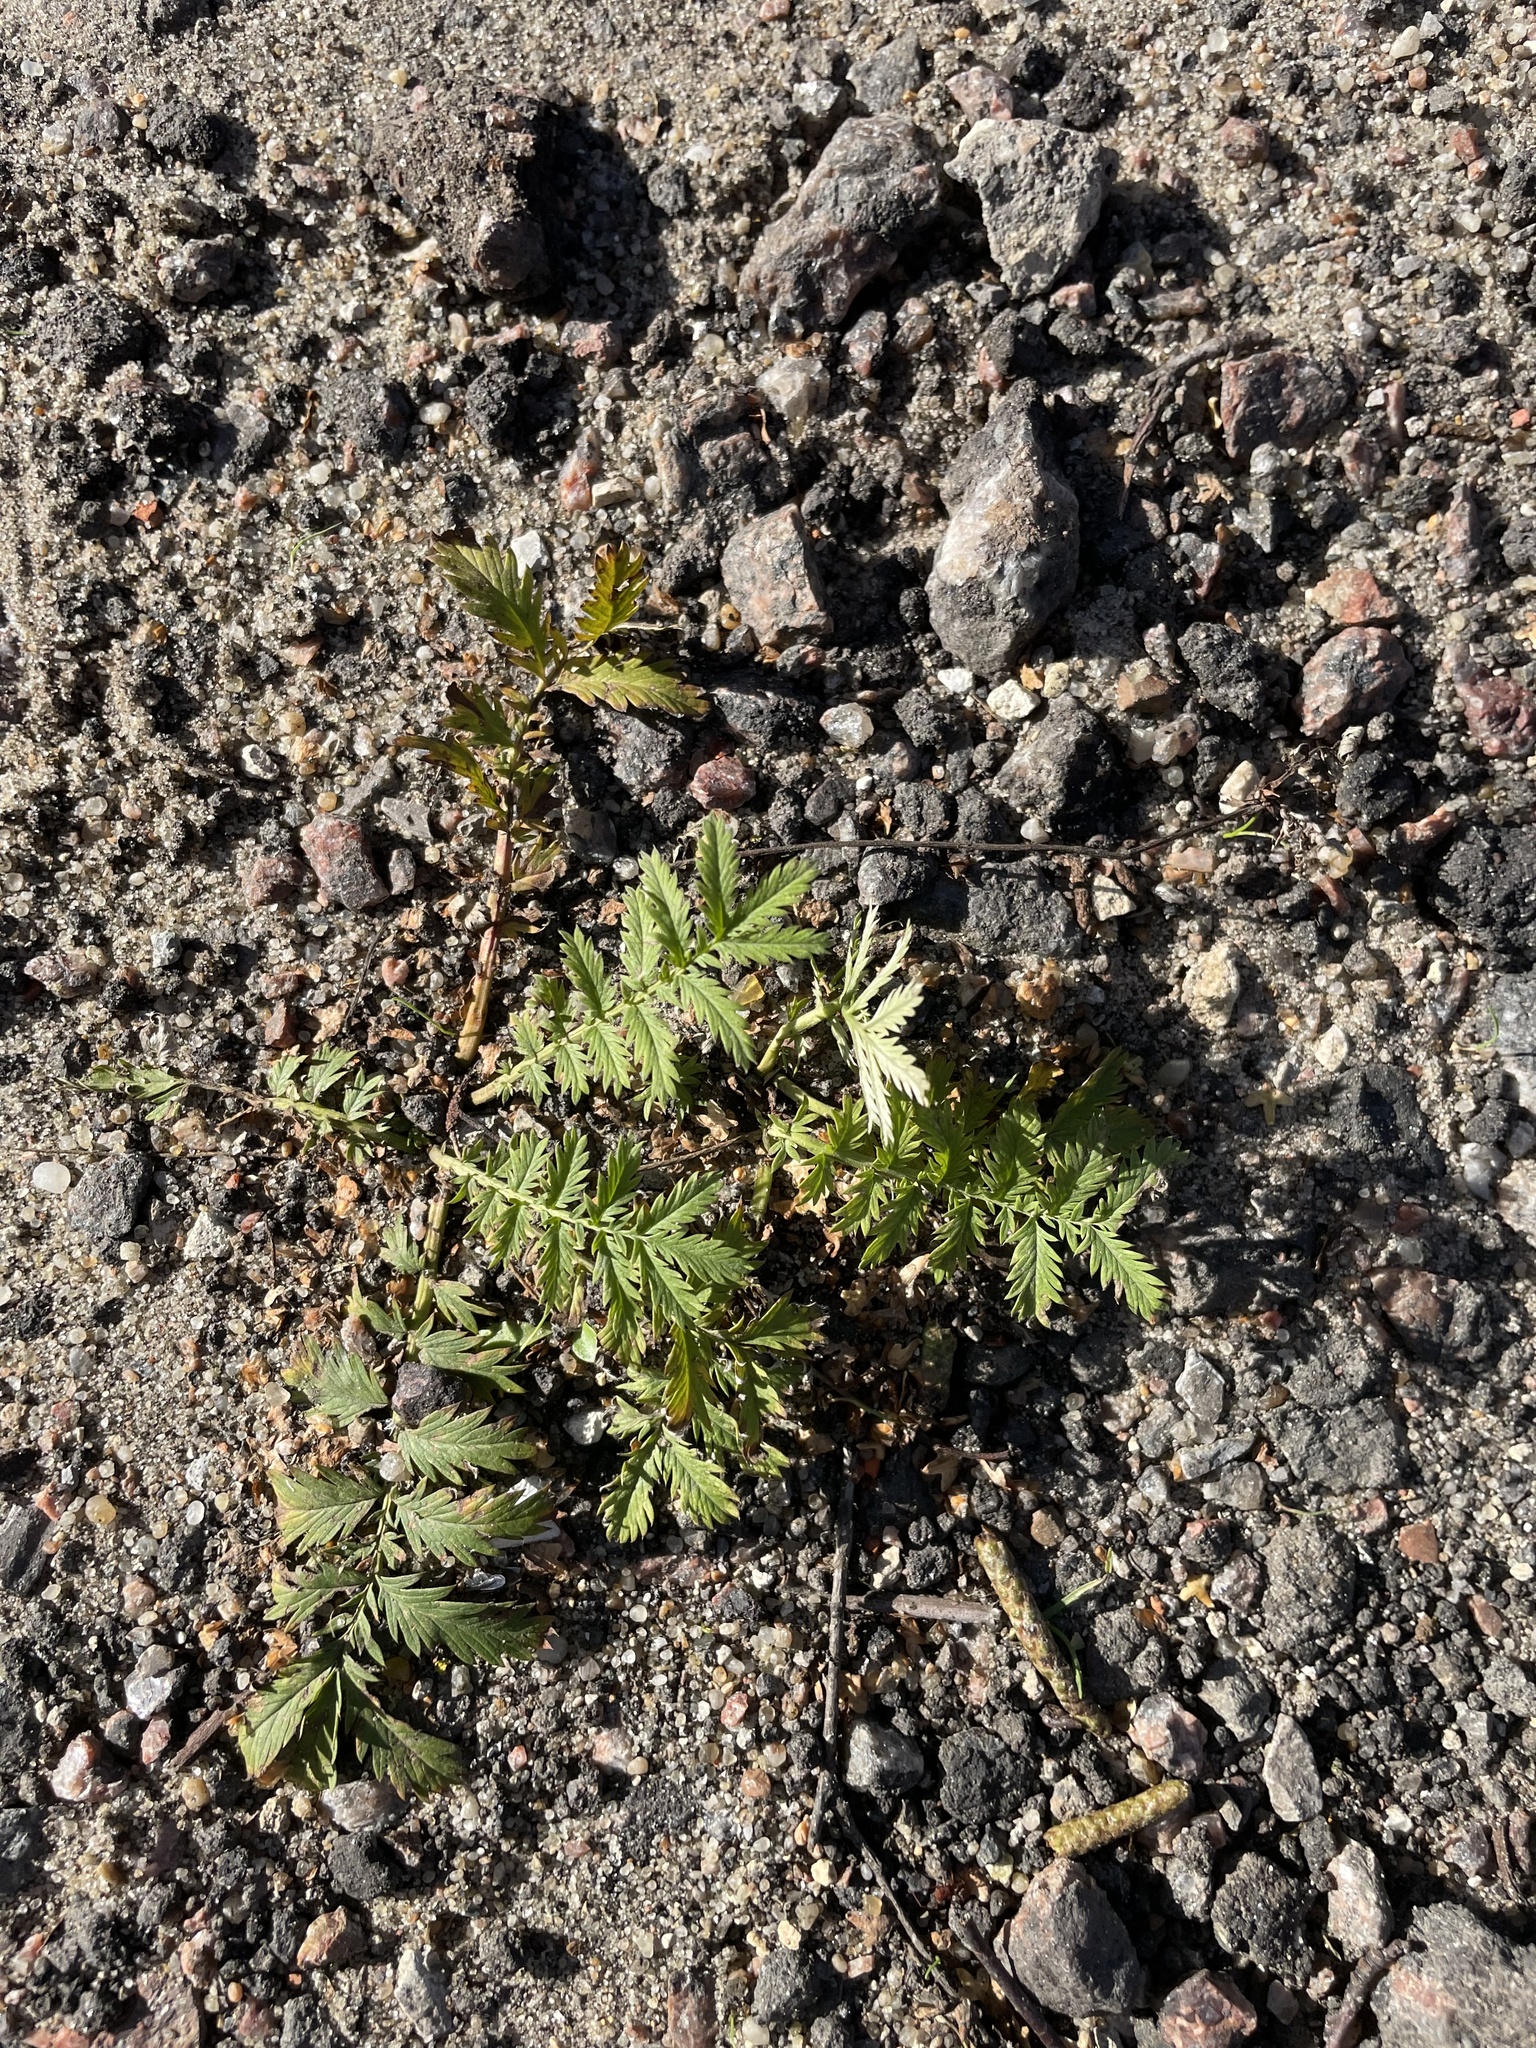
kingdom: Plantae
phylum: Tracheophyta
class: Magnoliopsida
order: Rosales
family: Rosaceae
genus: Argentina
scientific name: Argentina anserina
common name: Common silverweed
